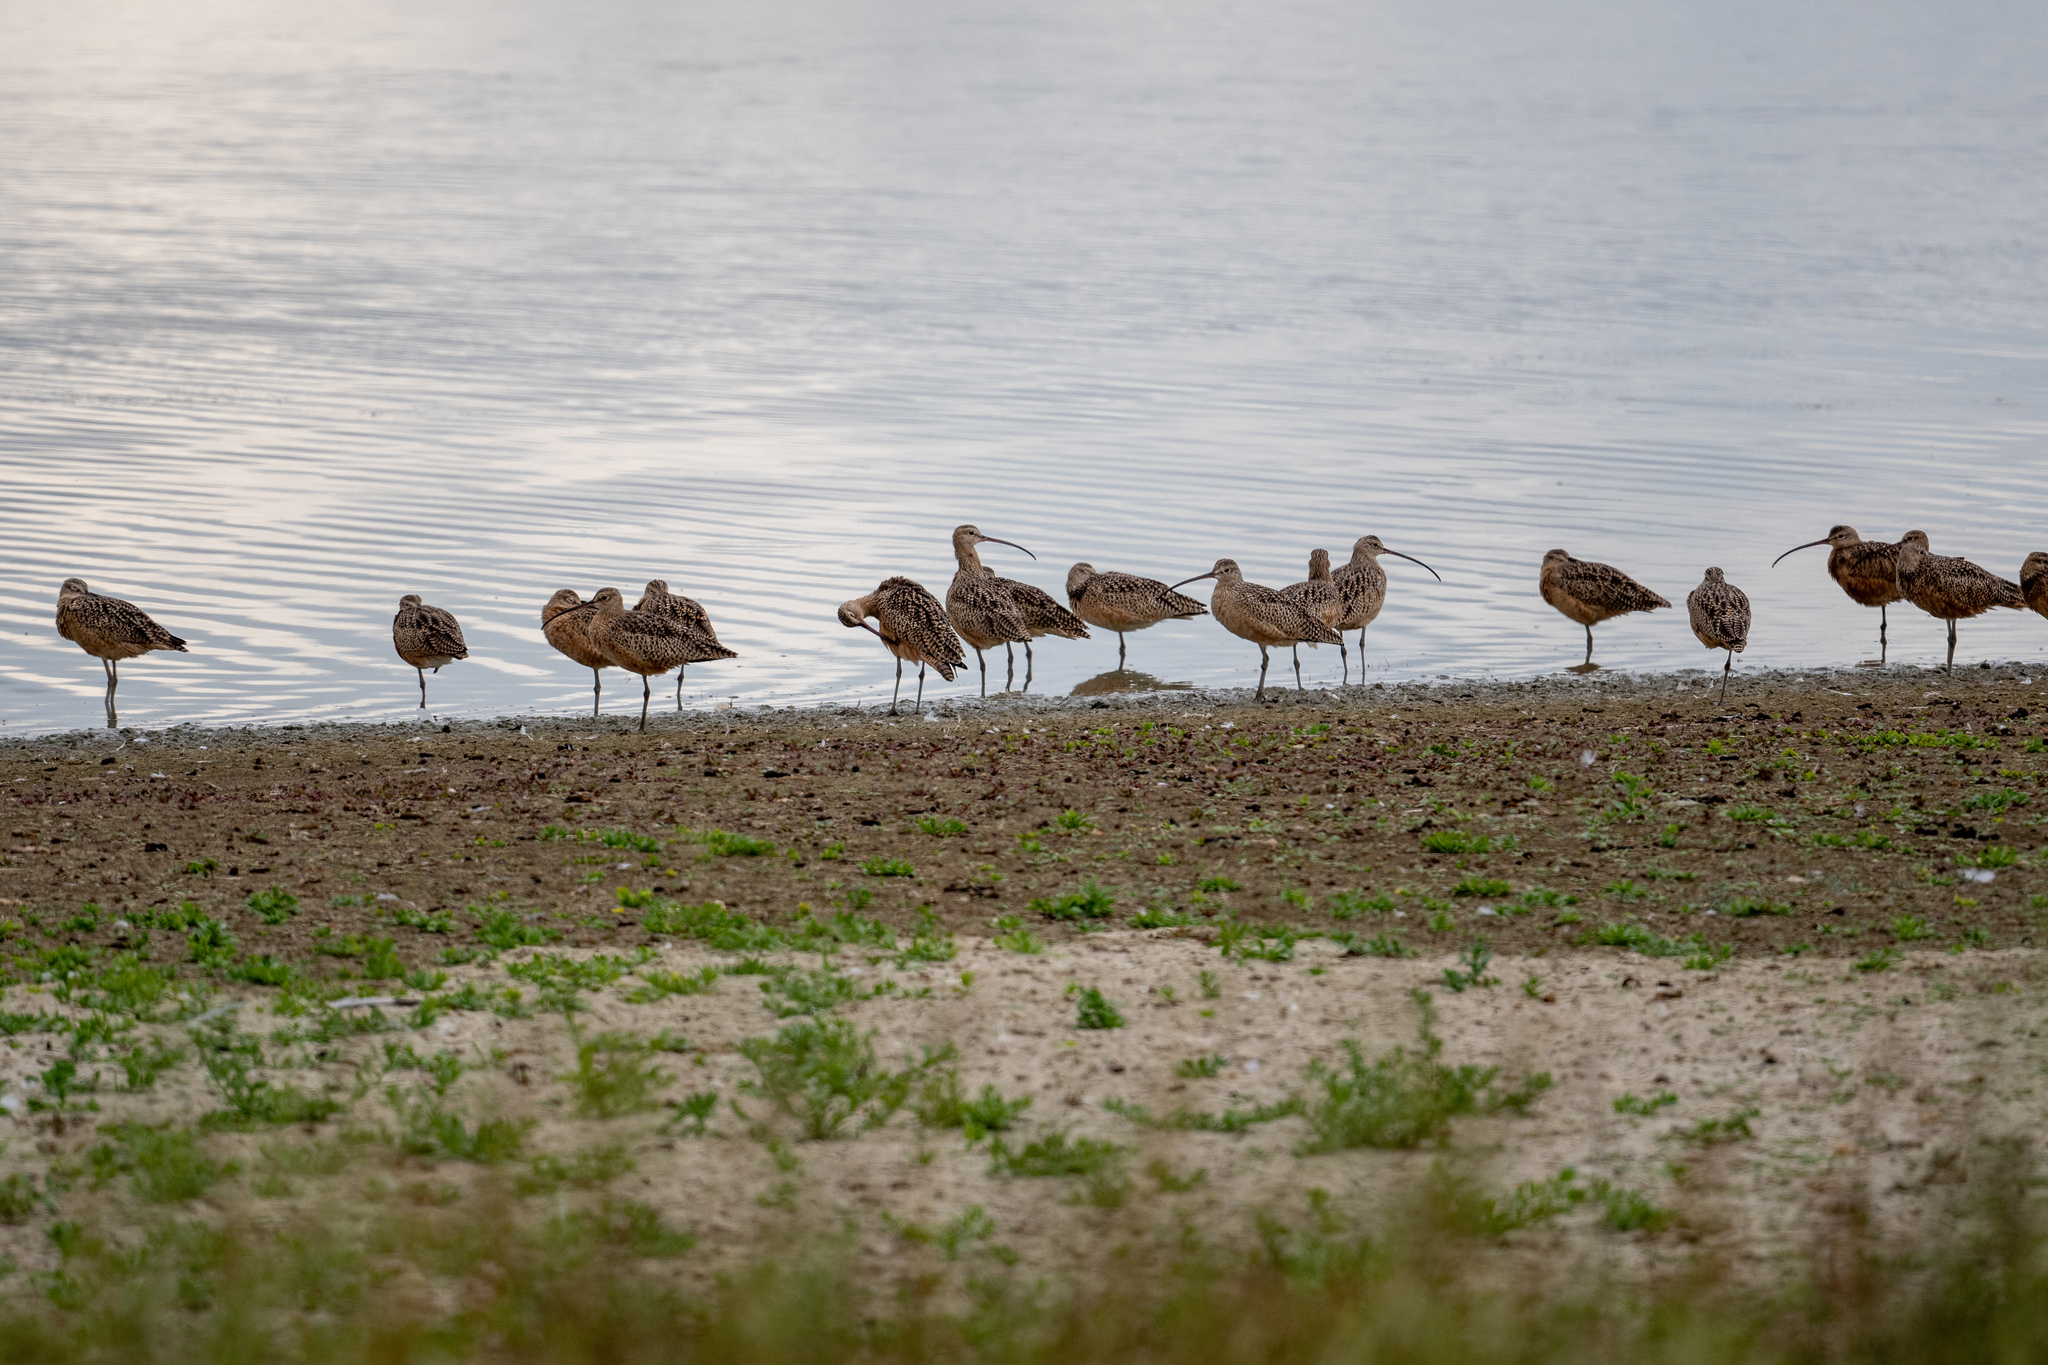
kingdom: Animalia
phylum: Chordata
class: Aves
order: Charadriiformes
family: Scolopacidae
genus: Numenius
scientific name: Numenius americanus
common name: Long-billed curlew
